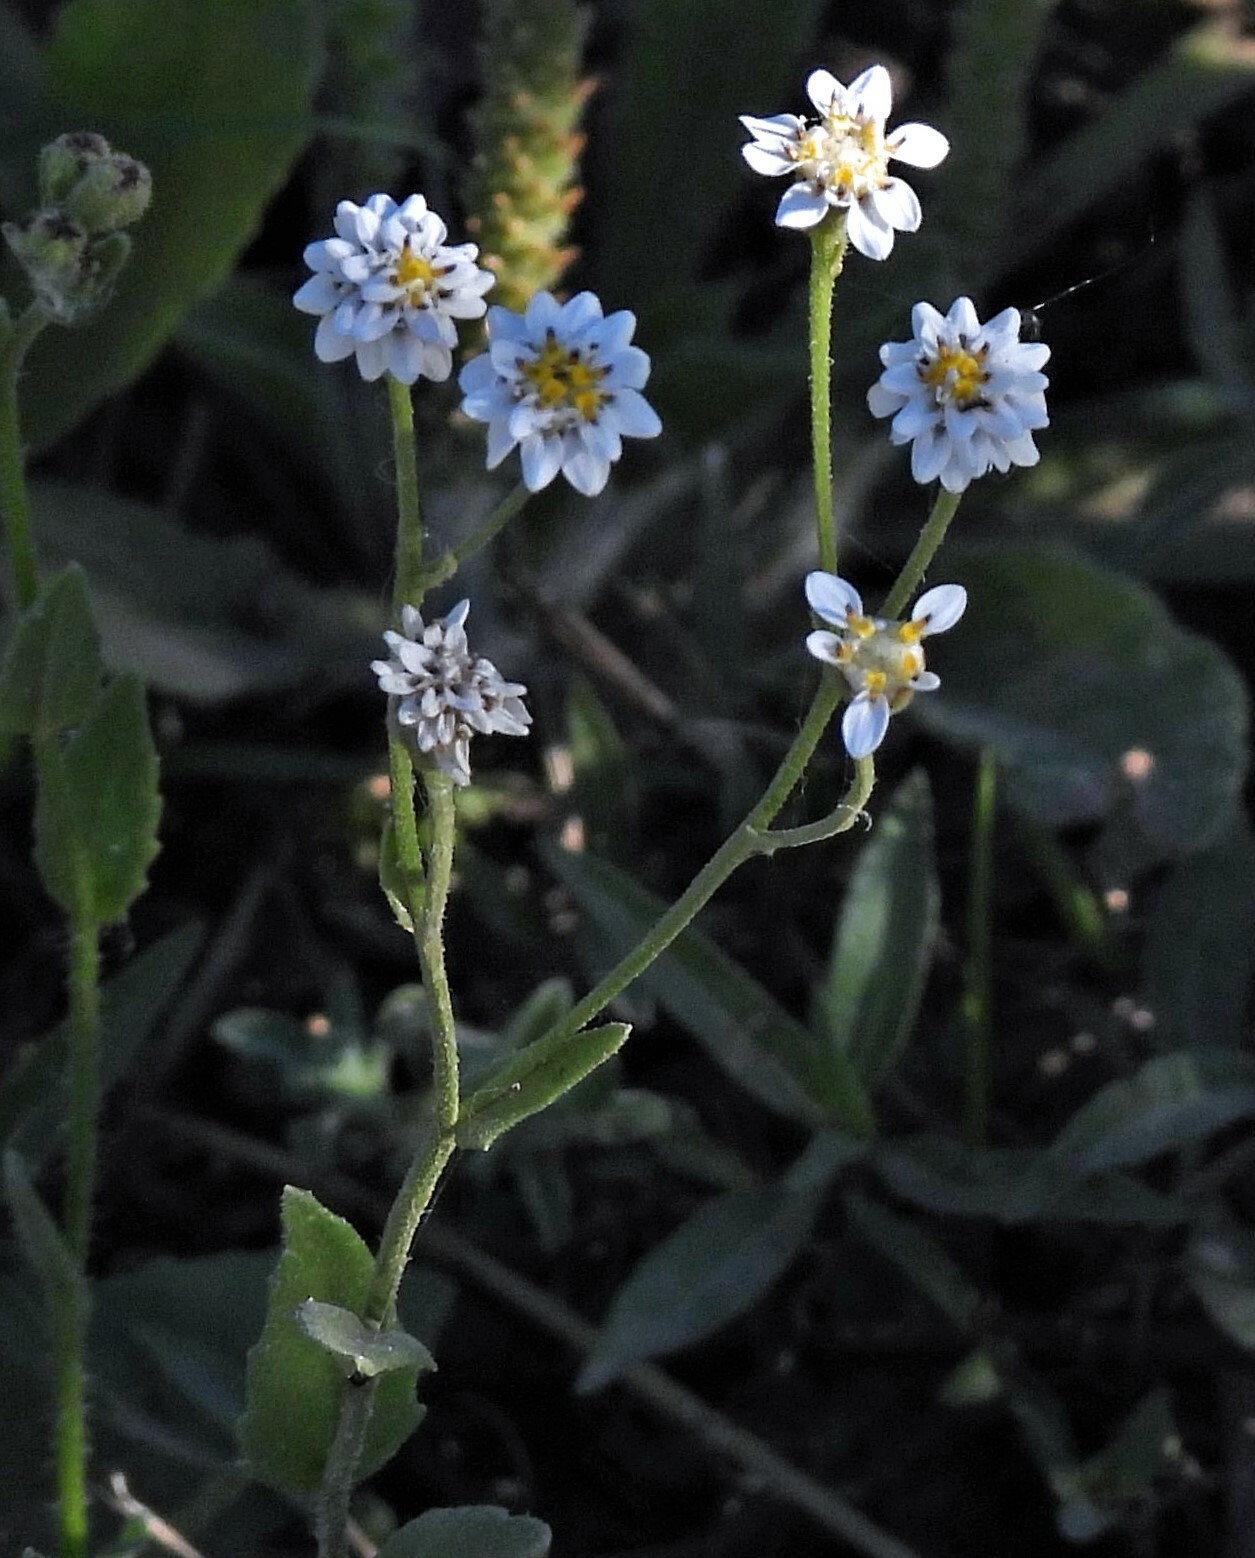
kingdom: Plantae
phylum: Tracheophyta
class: Magnoliopsida
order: Asterales
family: Asteraceae
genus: Holocheilus
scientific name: Holocheilus hieracioides
